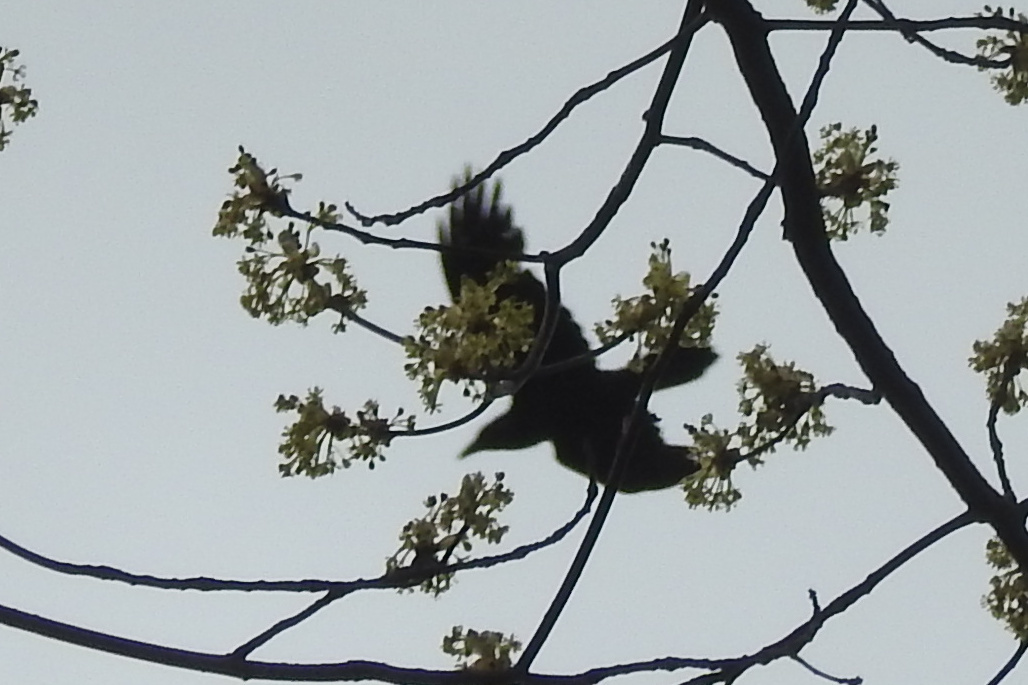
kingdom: Animalia
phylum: Chordata
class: Aves
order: Passeriformes
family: Corvidae
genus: Corvus
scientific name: Corvus corax
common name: Common raven
